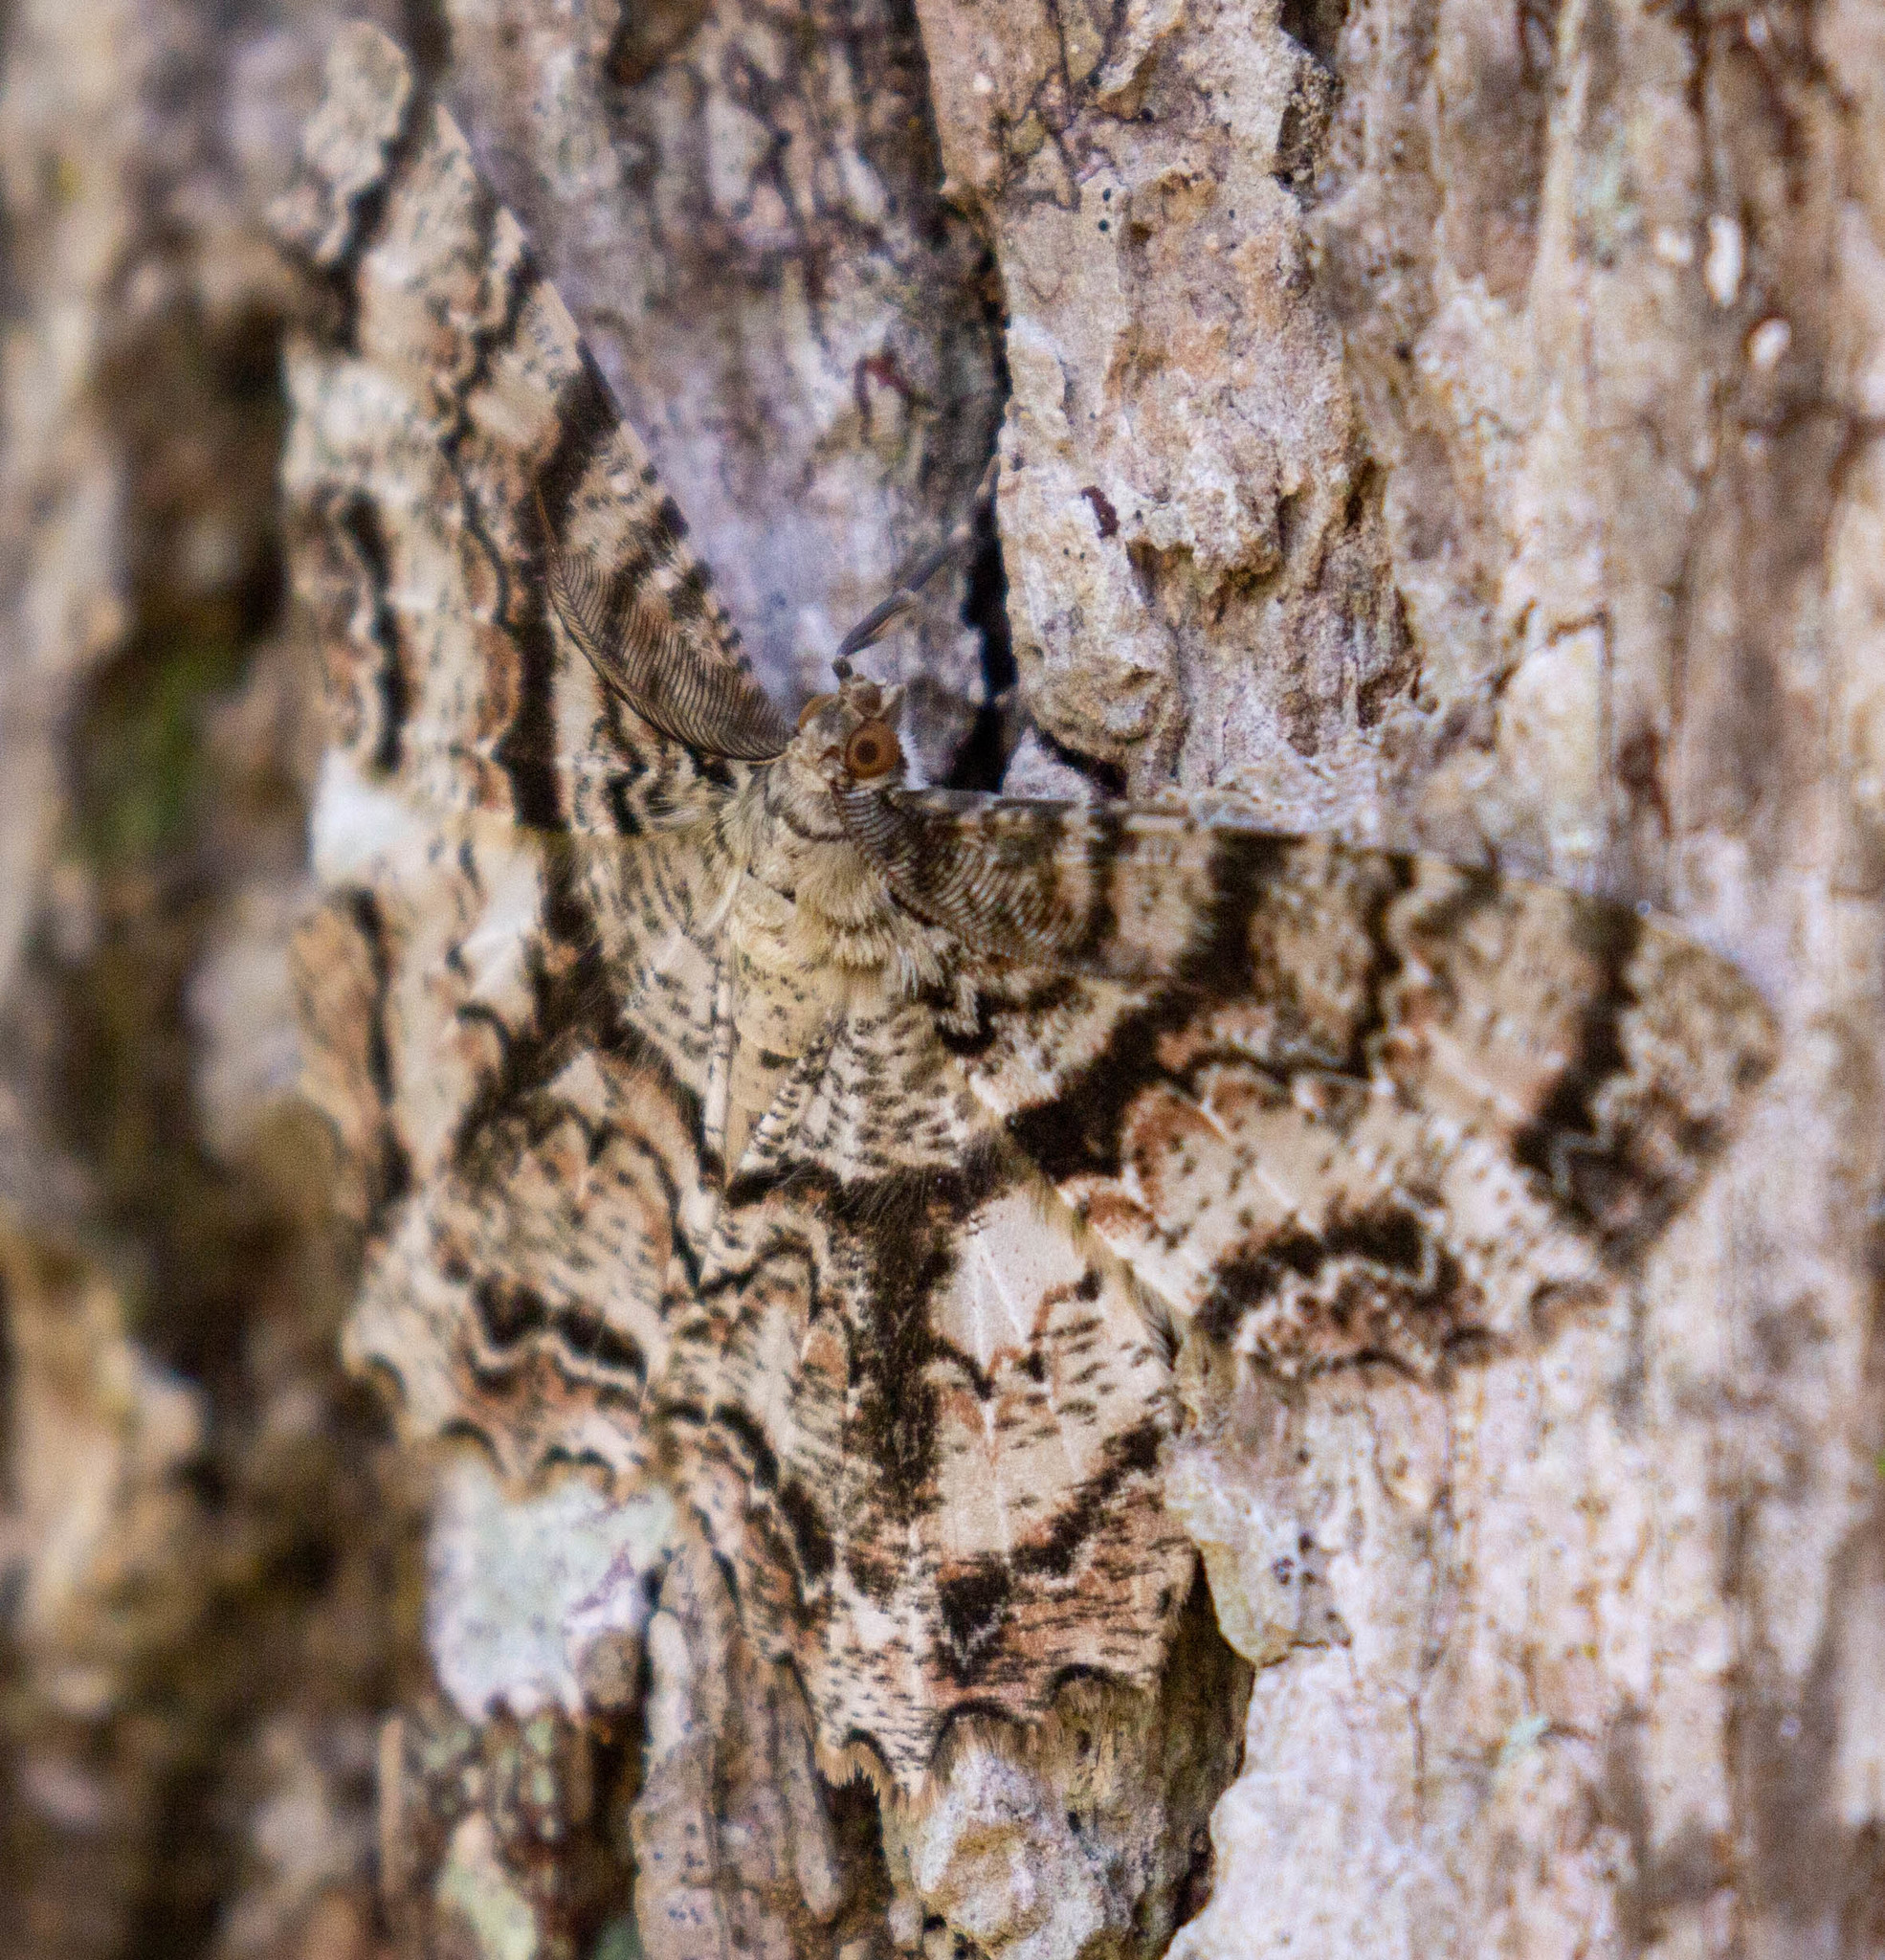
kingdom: Animalia
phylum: Arthropoda
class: Insecta
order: Lepidoptera
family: Geometridae
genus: Epimecis
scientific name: Epimecis hortaria
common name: Tulip-tree beauty
